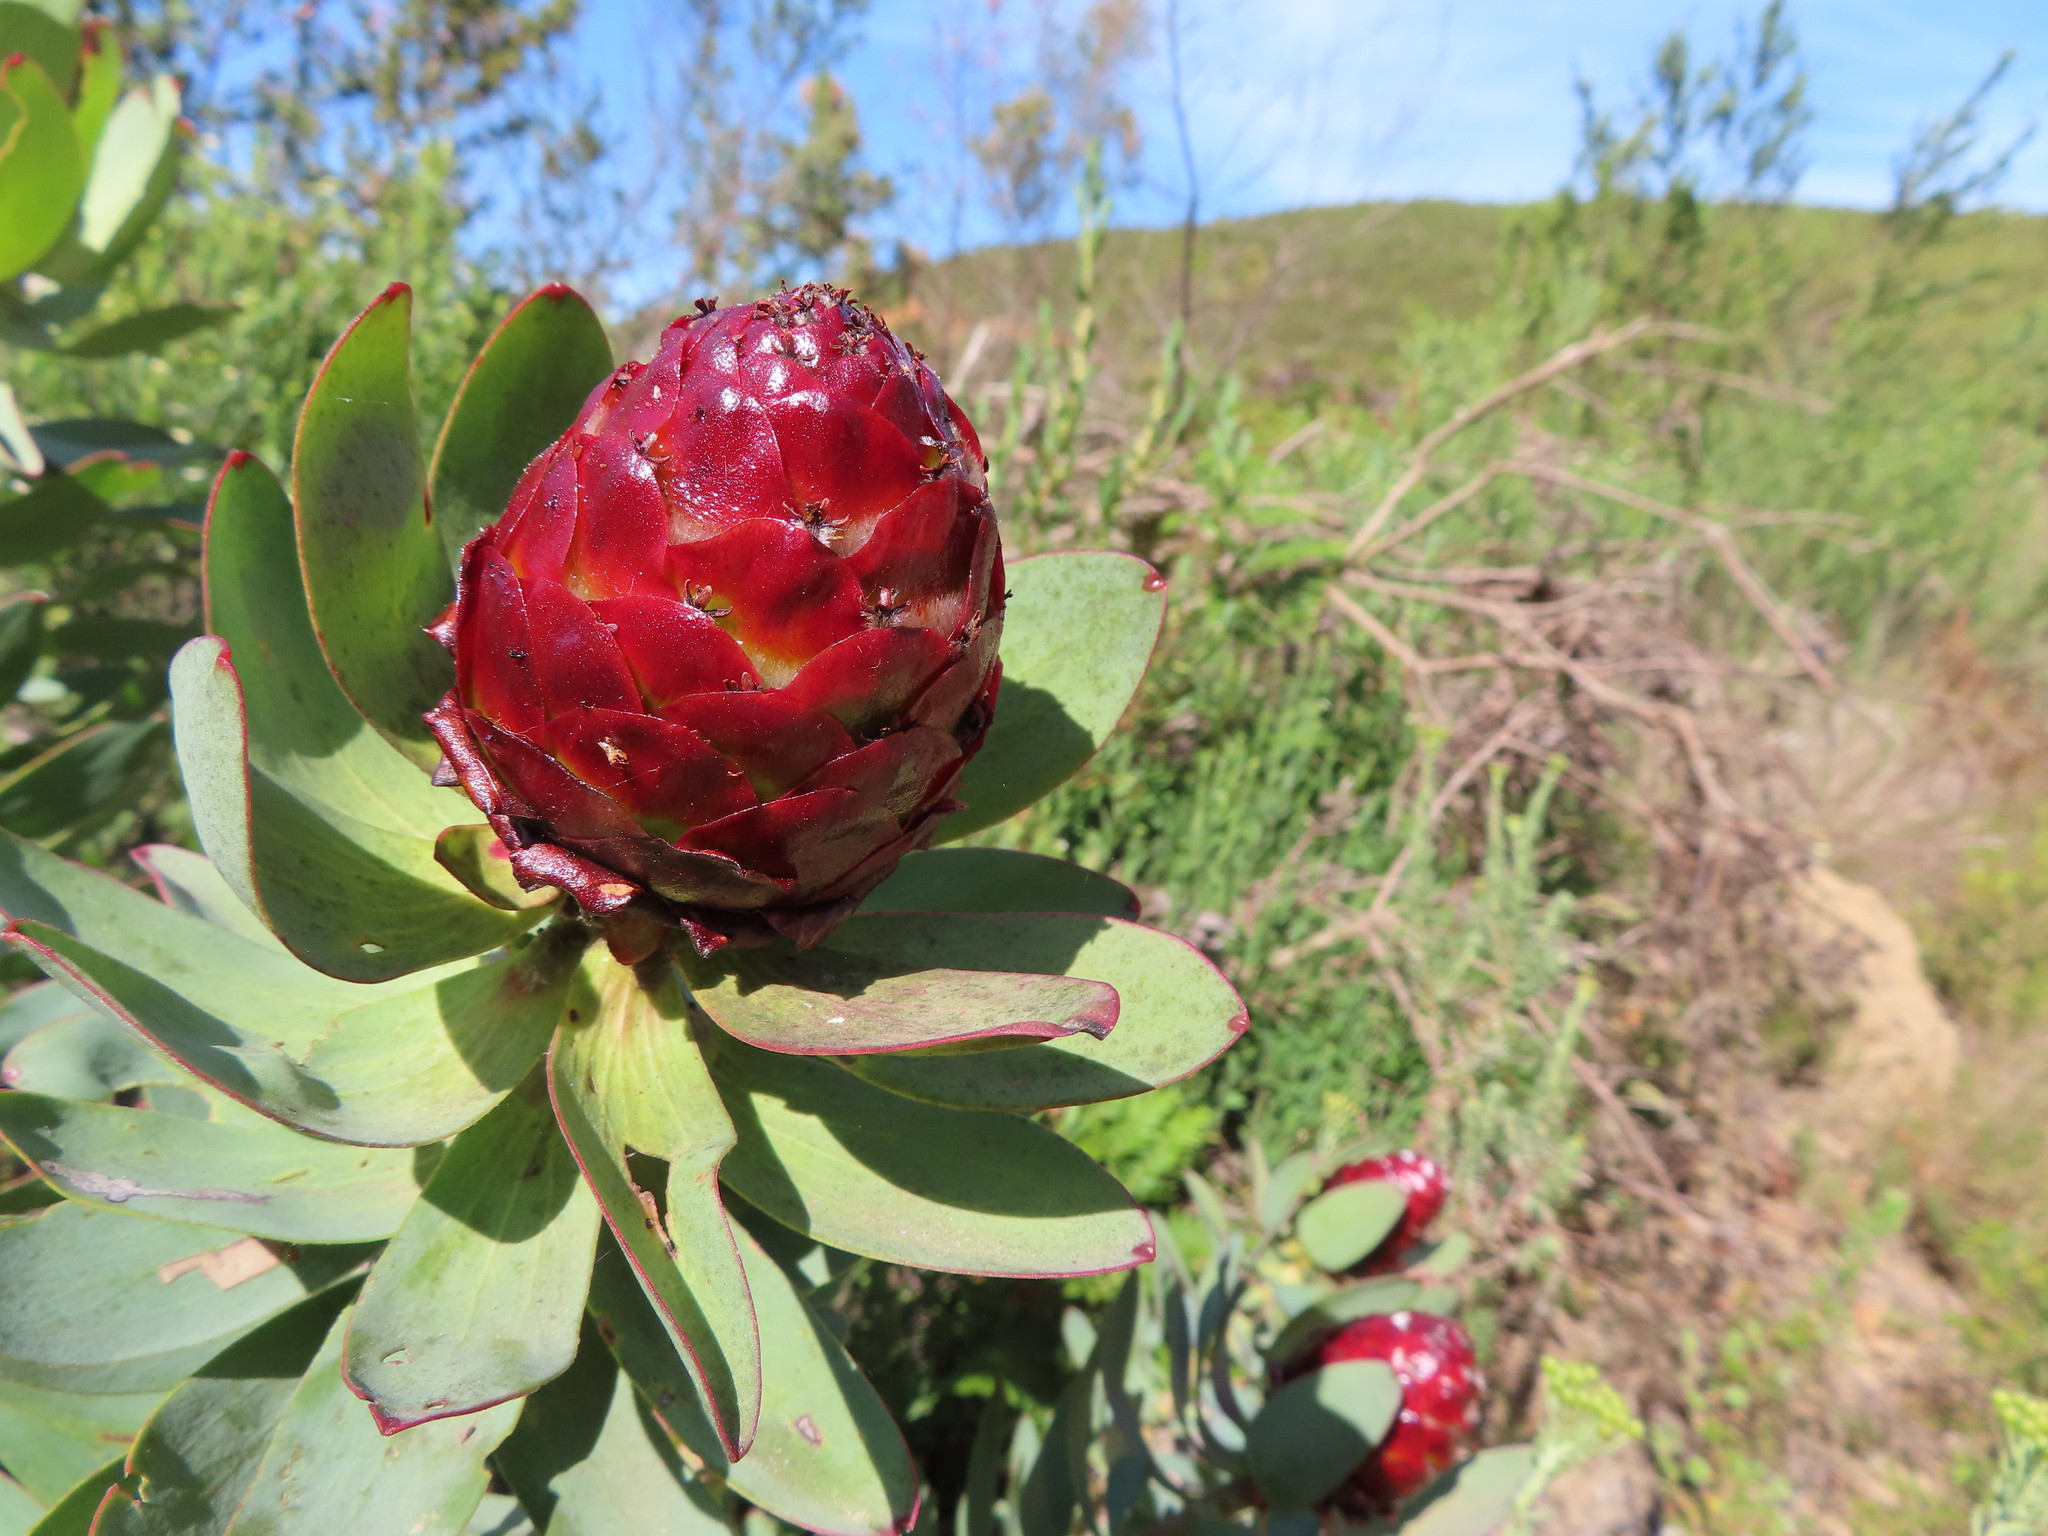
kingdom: Plantae
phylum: Tracheophyta
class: Magnoliopsida
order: Proteales
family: Proteaceae
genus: Leucadendron
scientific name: Leucadendron tinctum
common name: Spicy conebush
